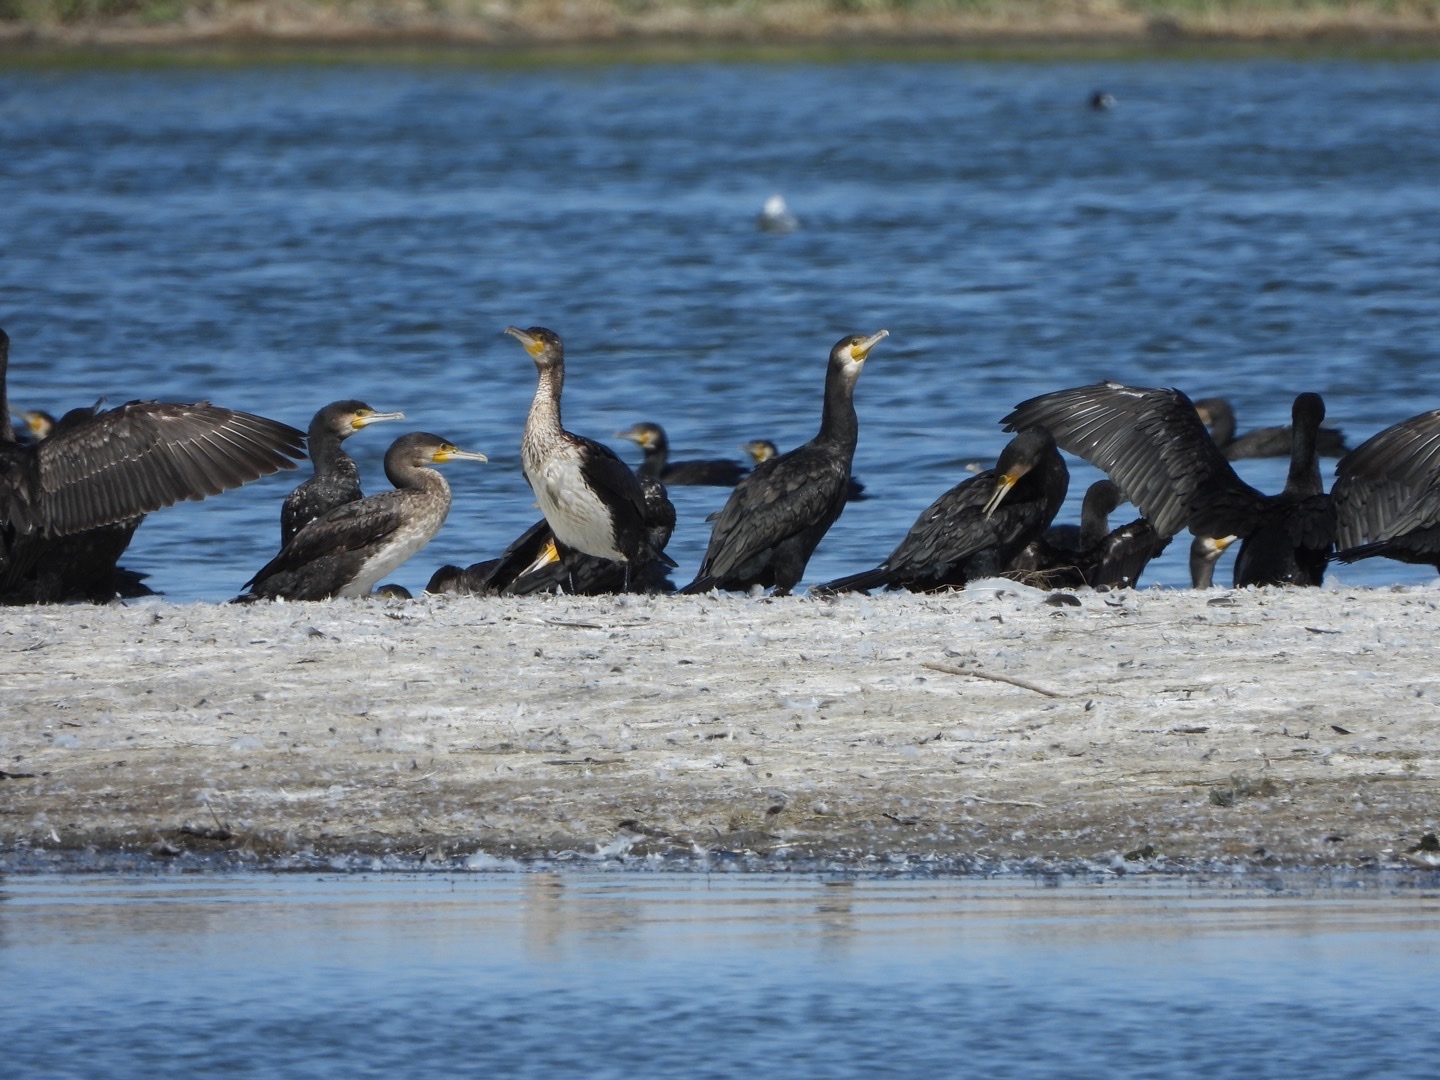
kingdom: Animalia
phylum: Chordata
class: Aves
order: Suliformes
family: Phalacrocoracidae
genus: Phalacrocorax
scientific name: Phalacrocorax carbo
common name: Great cormorant
